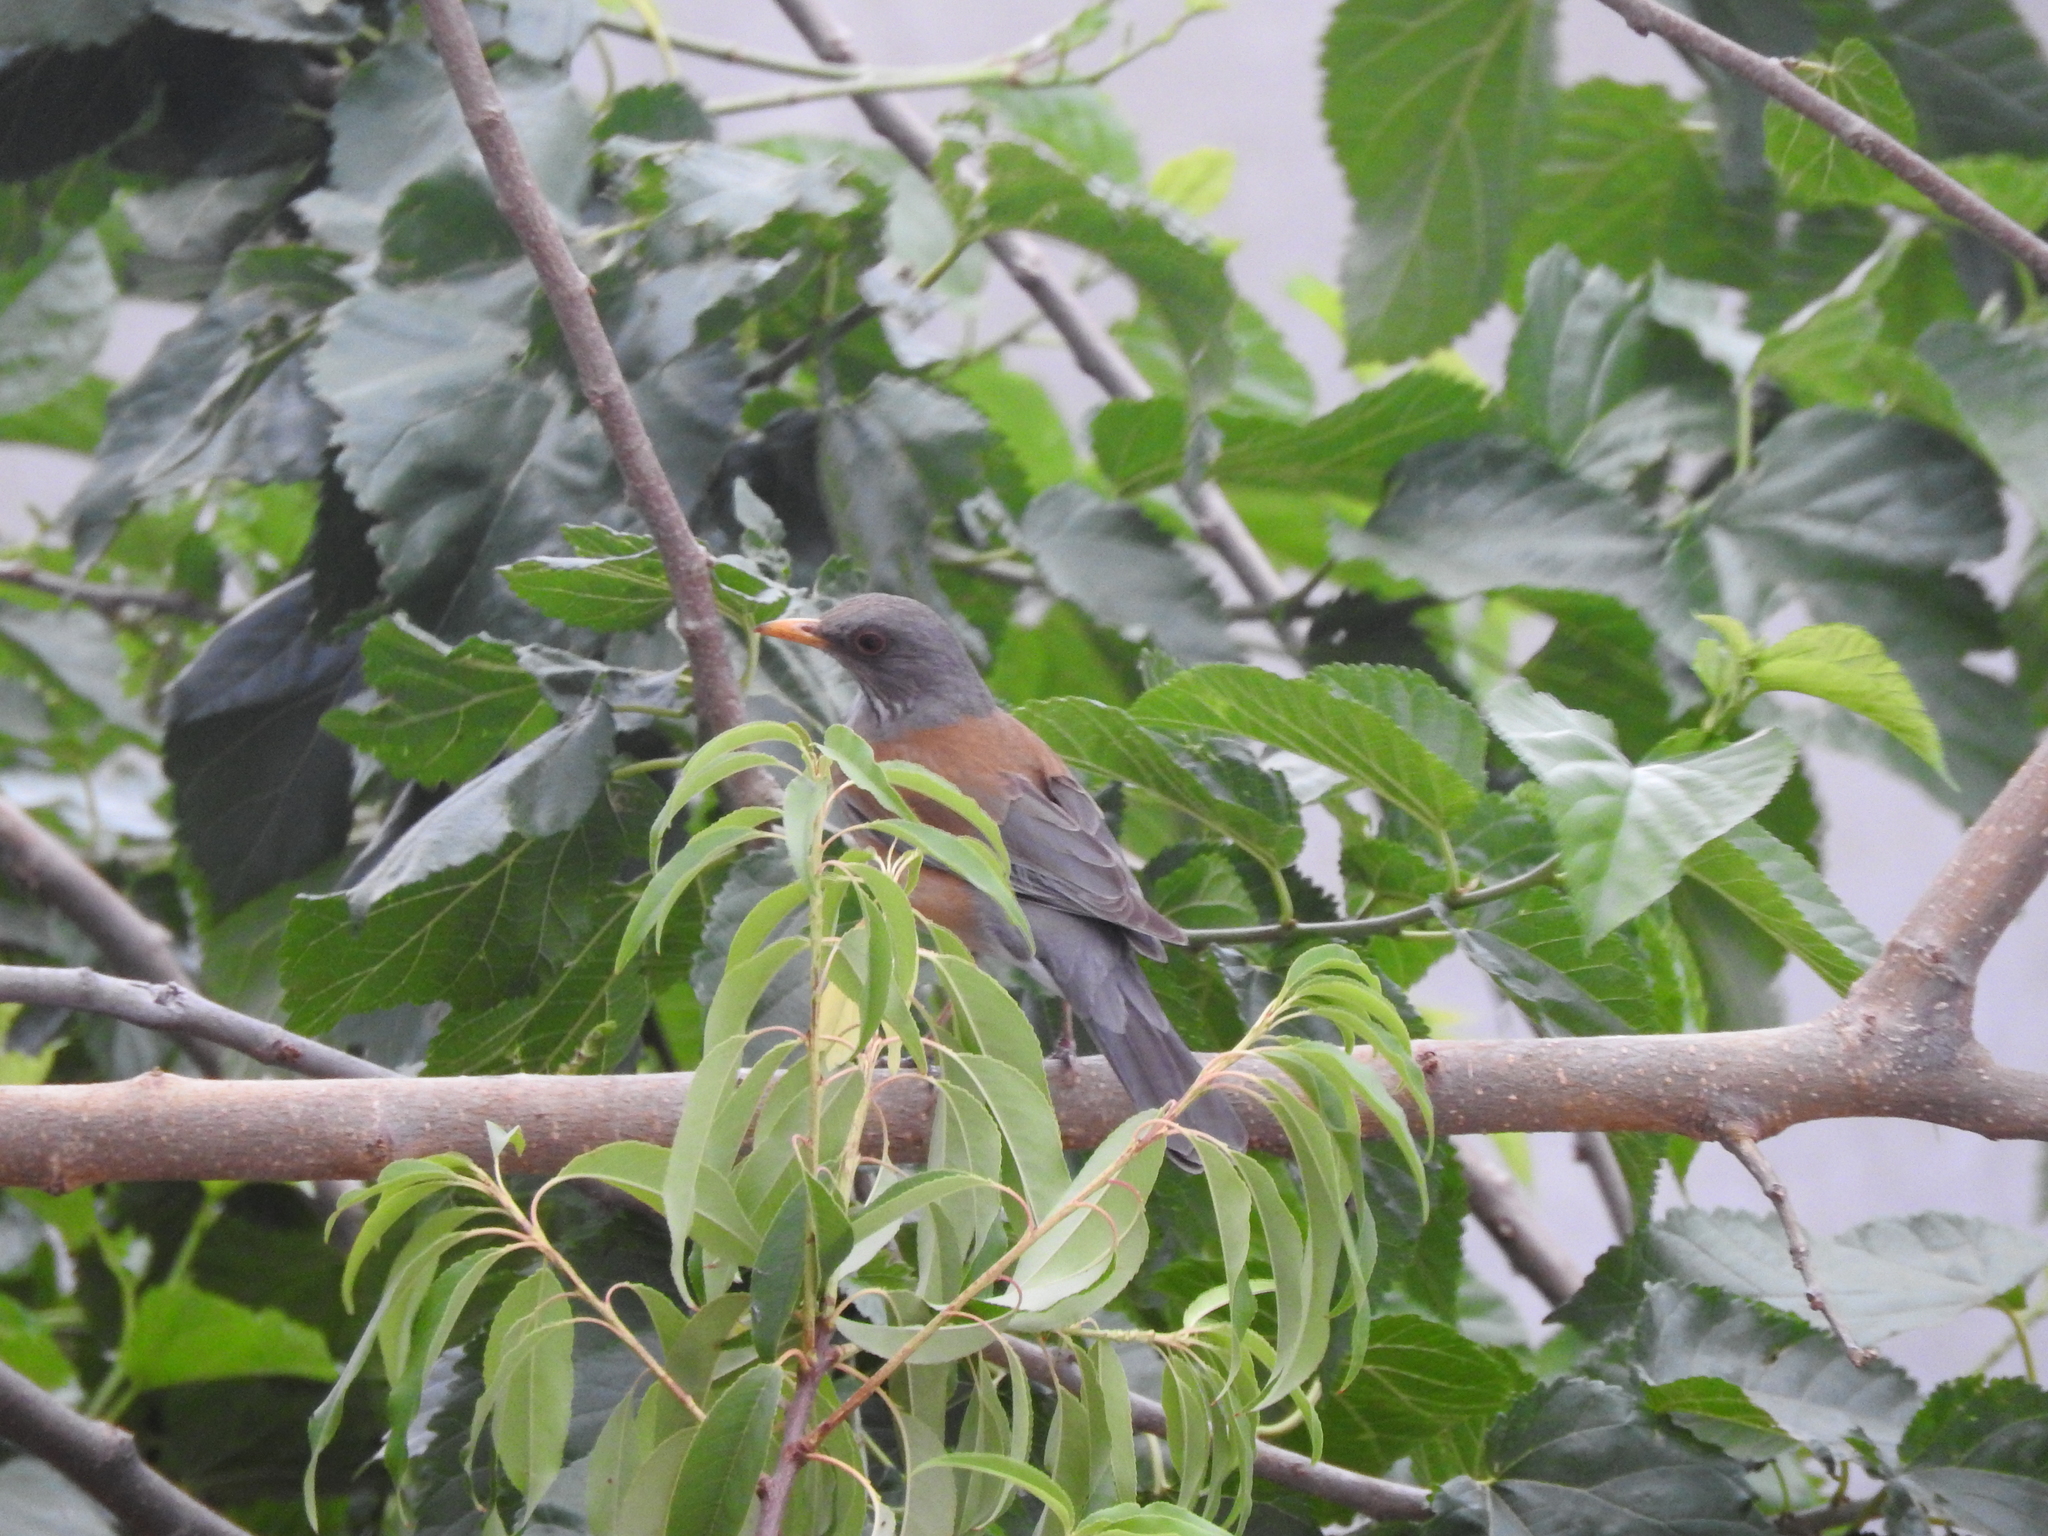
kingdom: Animalia
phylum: Chordata
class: Aves
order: Passeriformes
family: Turdidae
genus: Turdus
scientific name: Turdus rufopalliatus
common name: Rufous-backed robin
